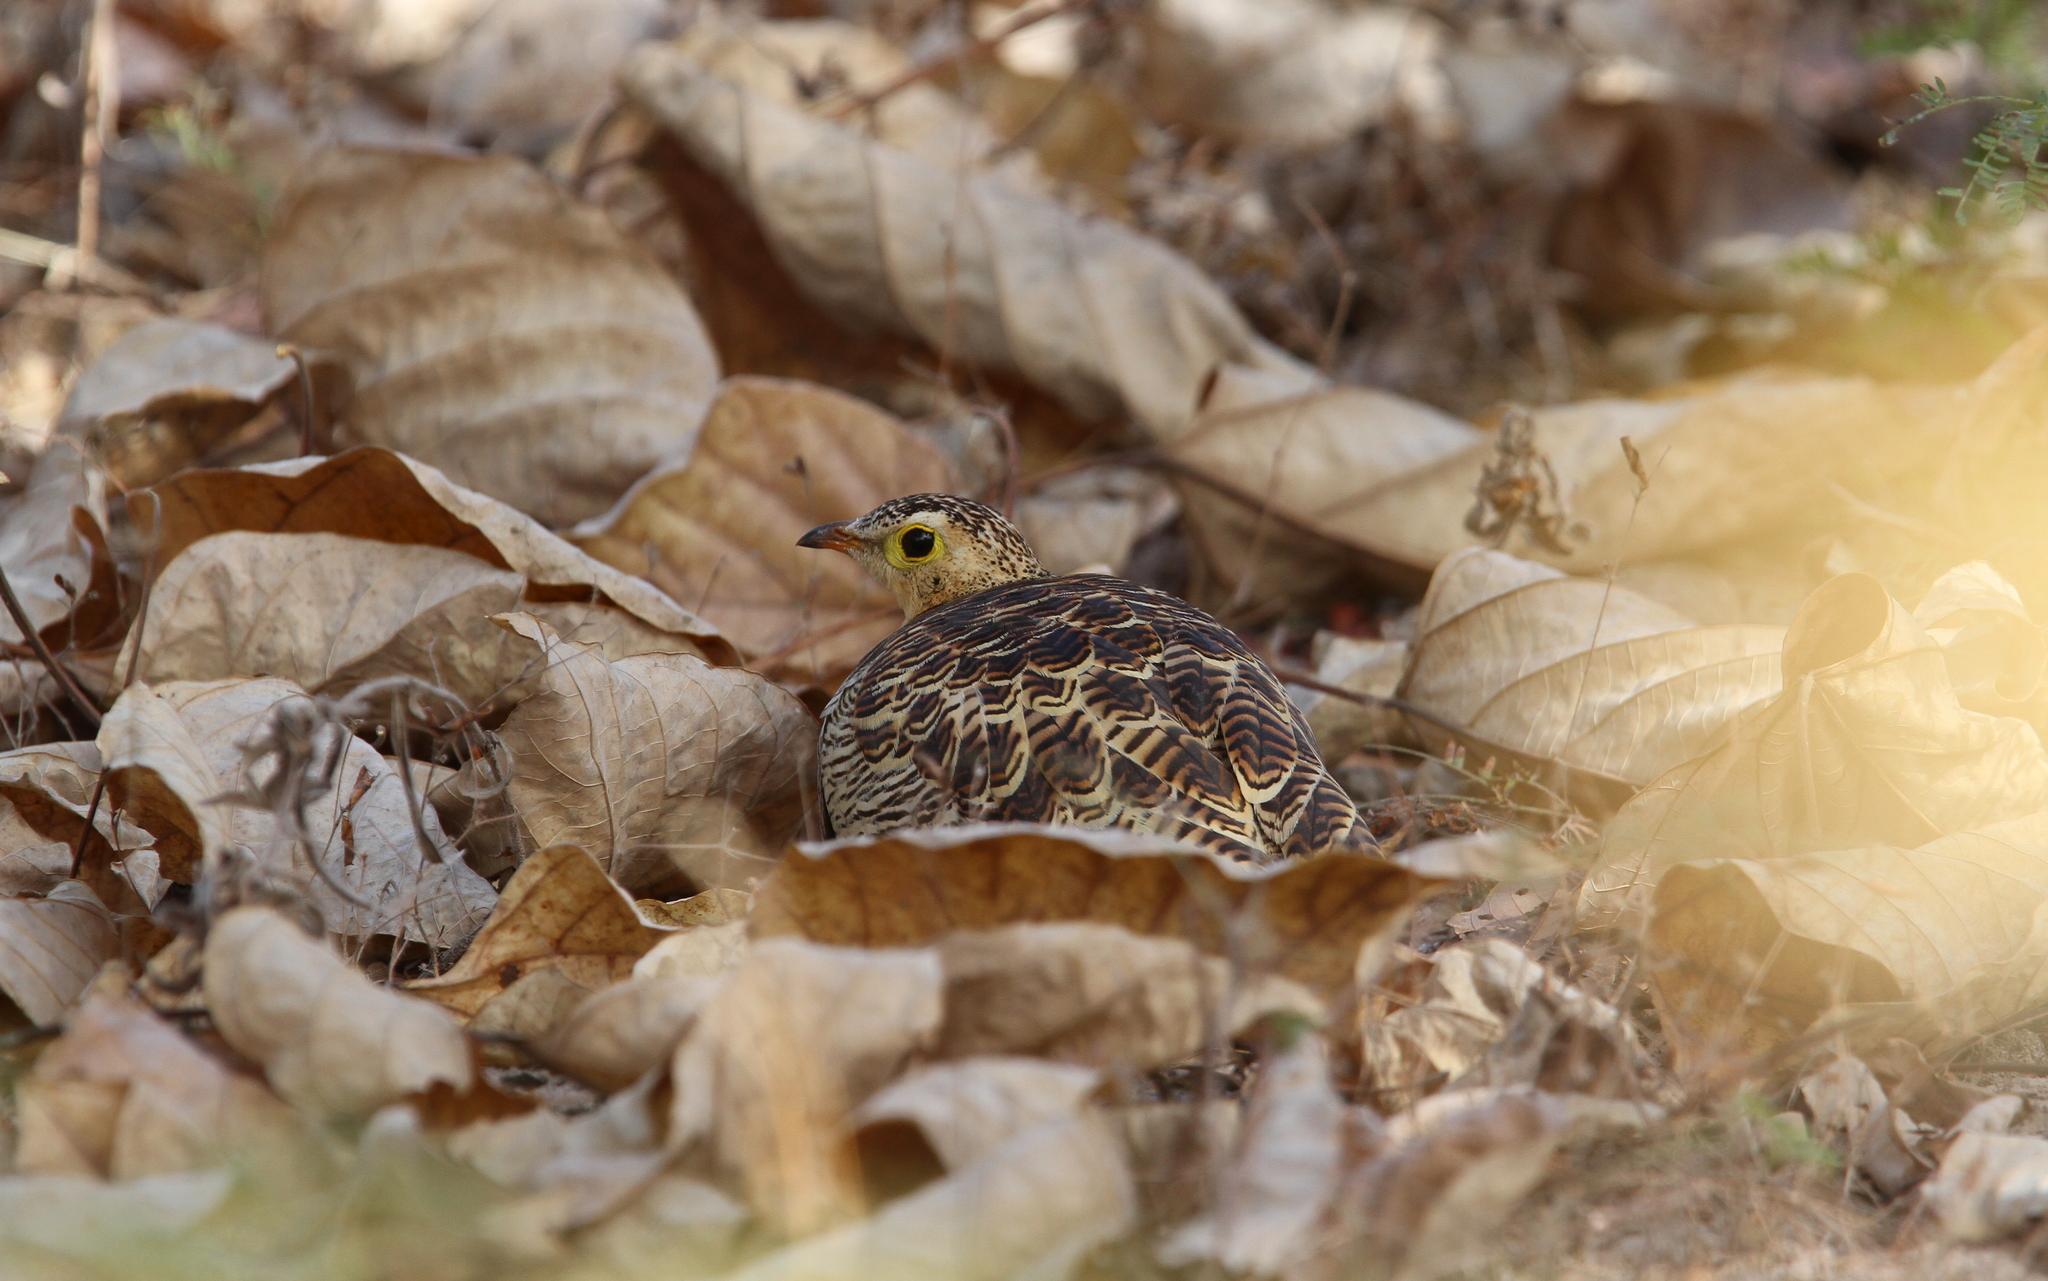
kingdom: Animalia
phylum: Chordata
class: Aves
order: Pteroclidiformes
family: Pteroclididae
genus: Pterocles
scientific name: Pterocles quadricinctus
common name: Four-banded sandgrouse
